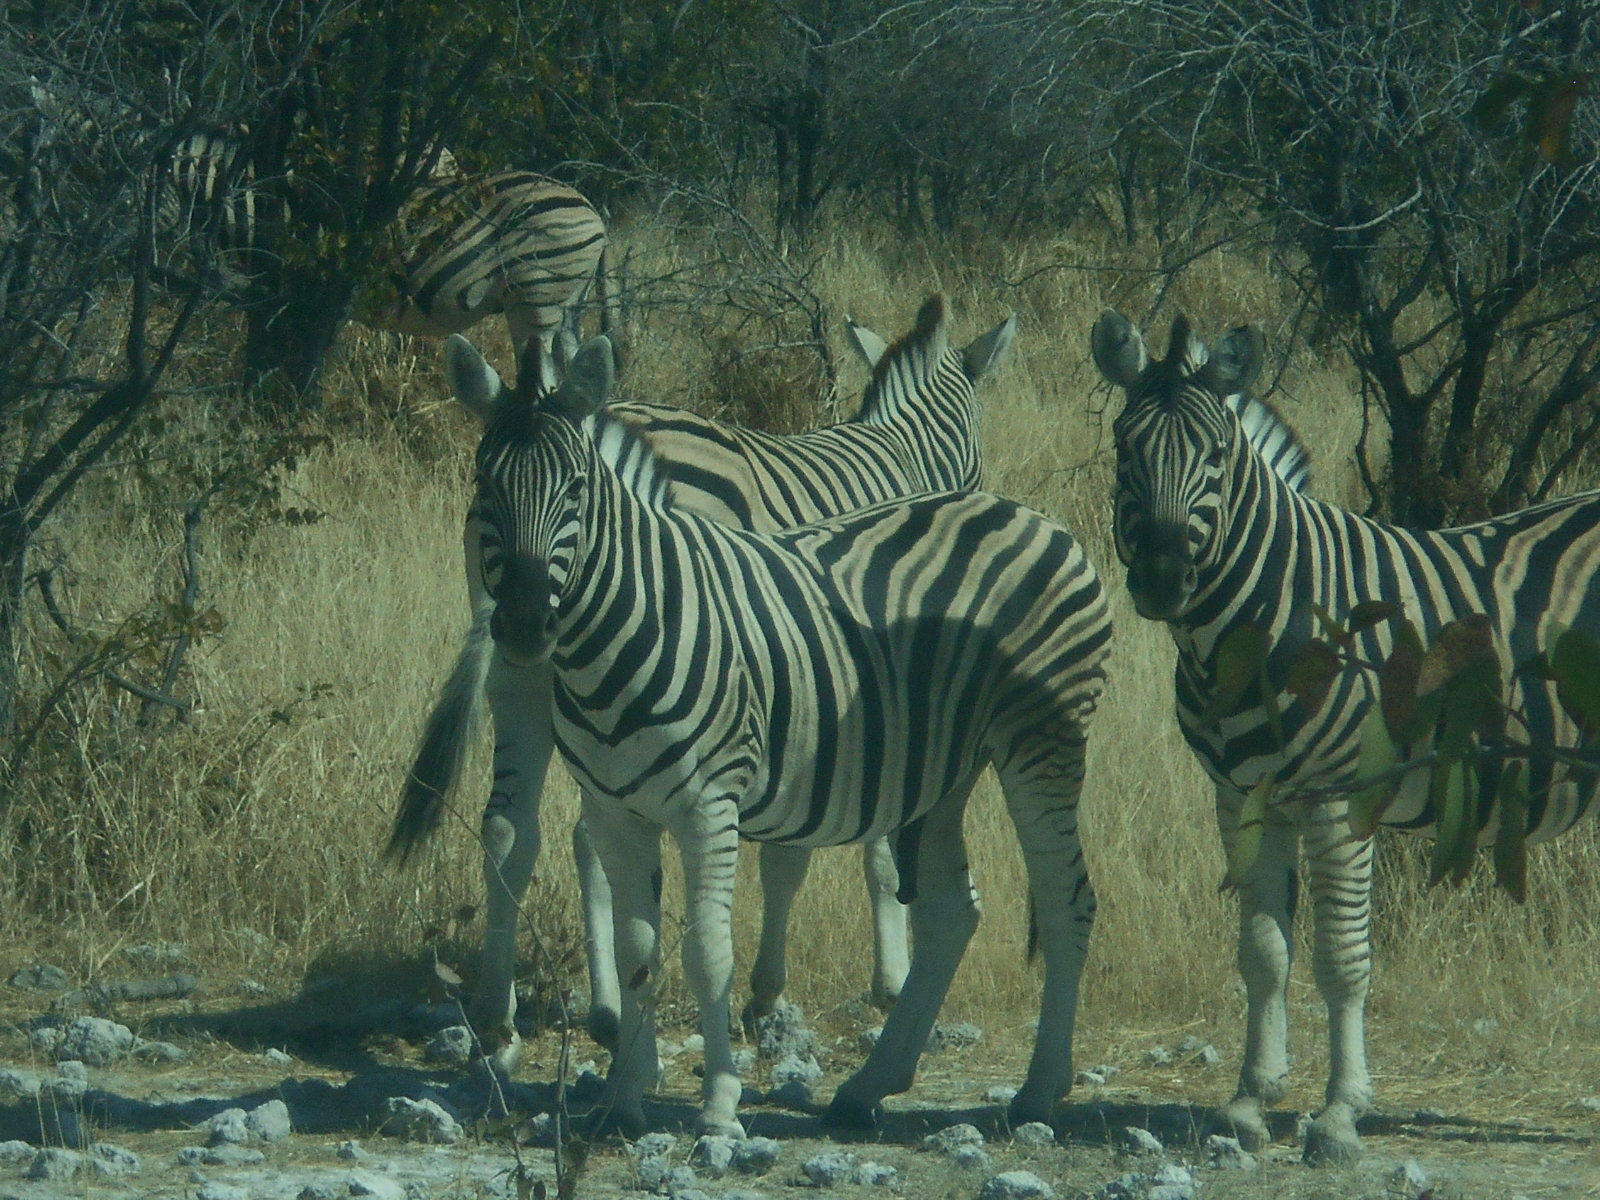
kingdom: Animalia
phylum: Chordata
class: Mammalia
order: Perissodactyla
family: Equidae
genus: Equus
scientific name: Equus quagga
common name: Plains zebra
